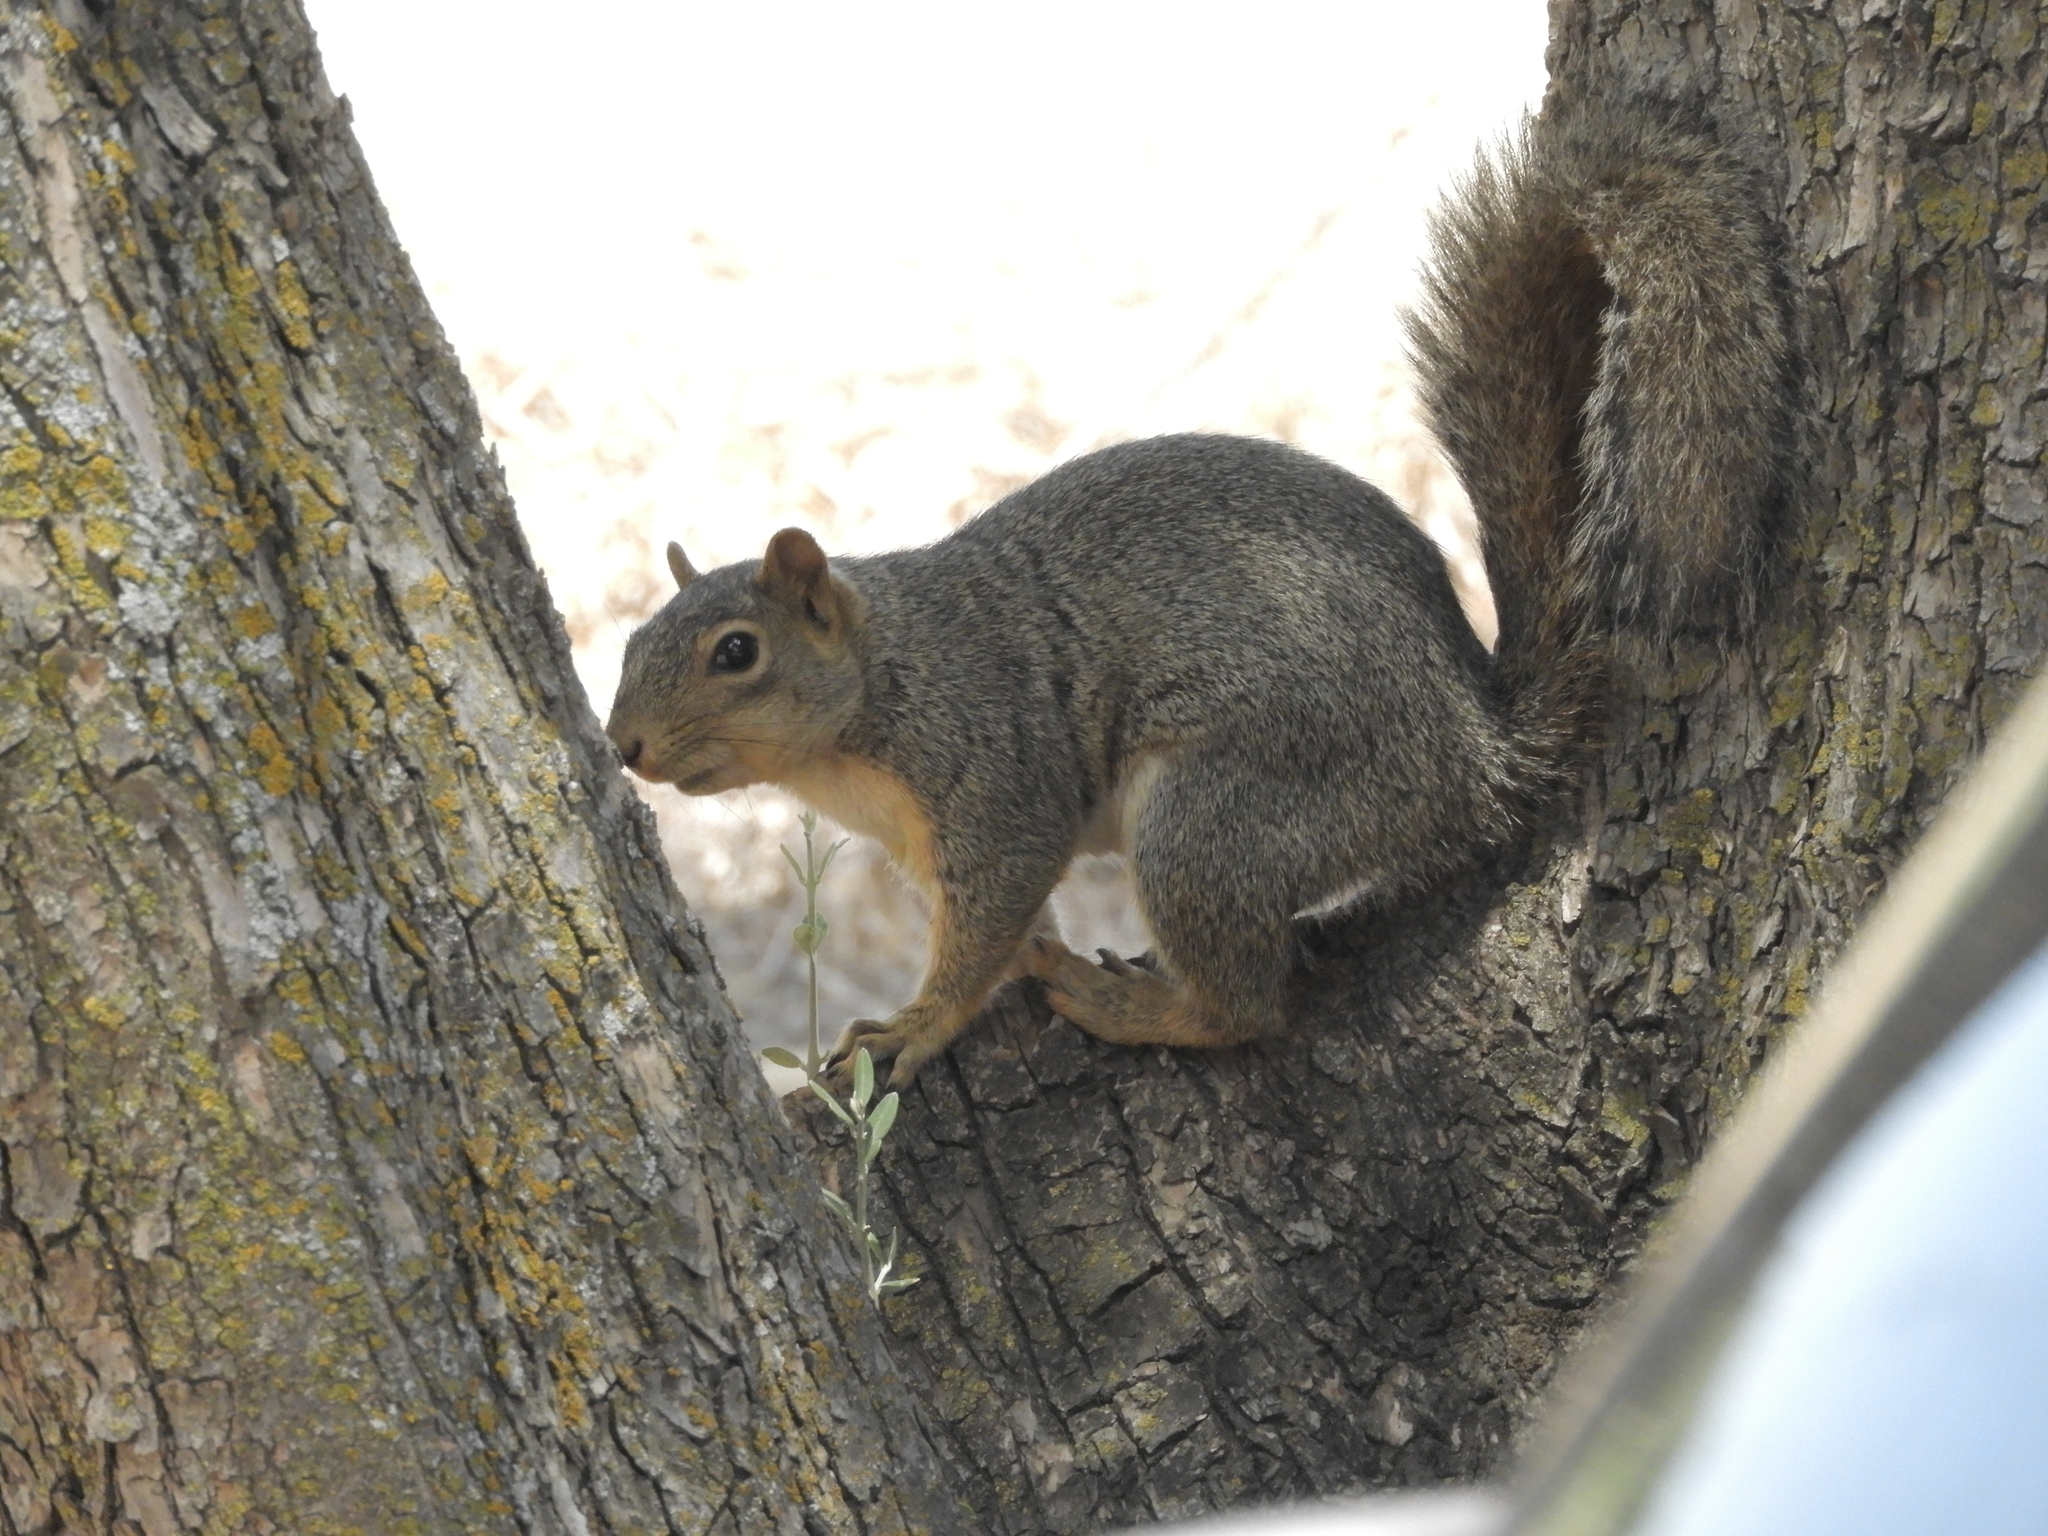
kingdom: Animalia
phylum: Chordata
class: Mammalia
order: Rodentia
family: Sciuridae
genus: Sciurus
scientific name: Sciurus niger
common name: Fox squirrel
